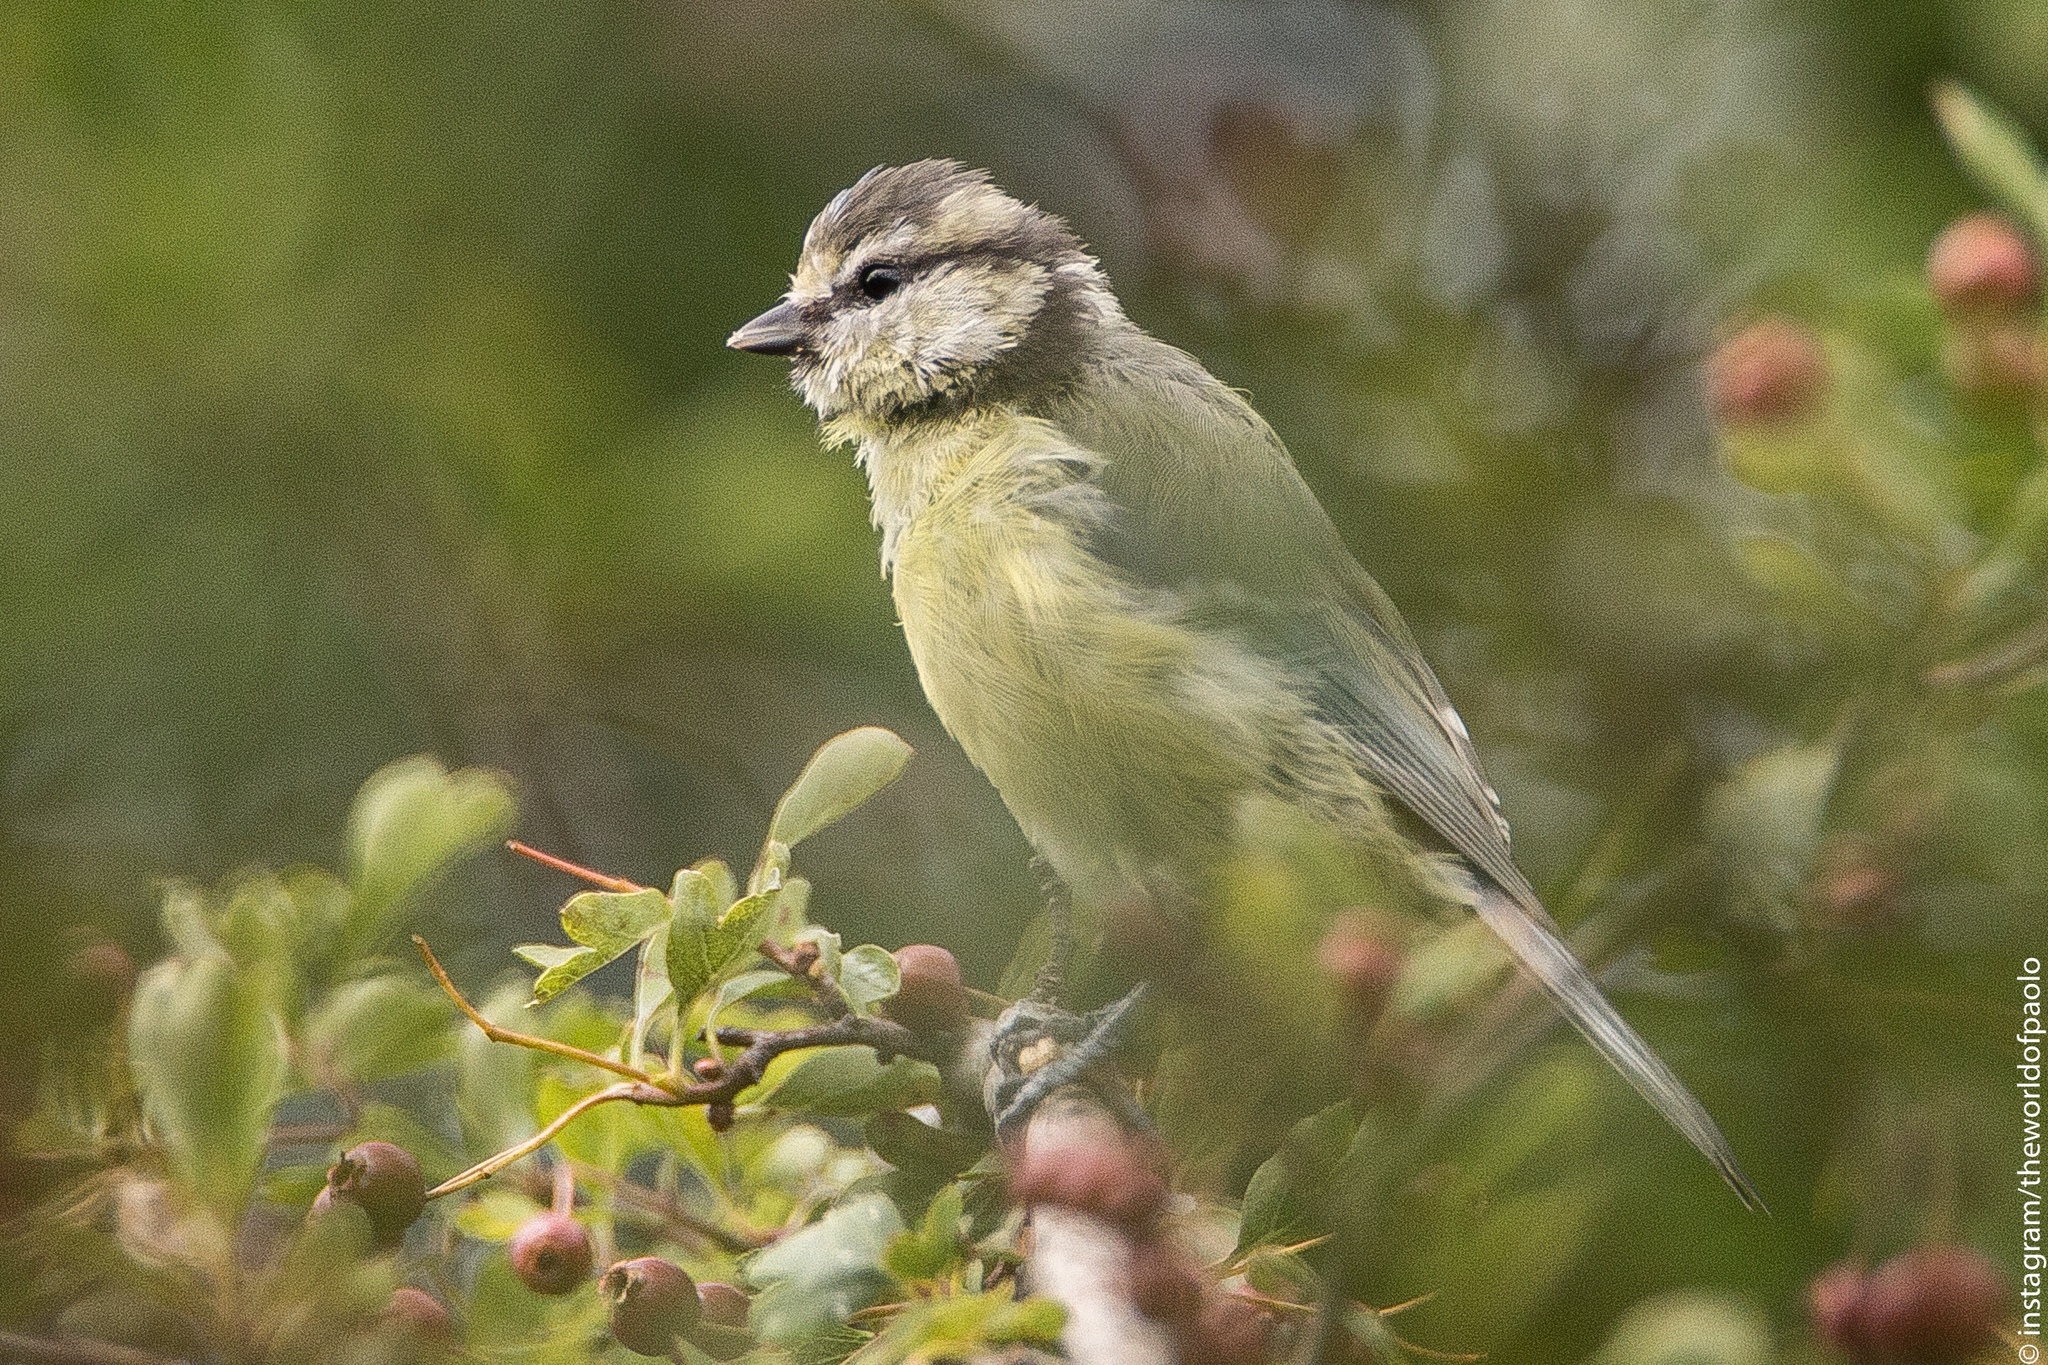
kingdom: Animalia
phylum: Chordata
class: Aves
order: Passeriformes
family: Paridae
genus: Cyanistes
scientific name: Cyanistes caeruleus
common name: Eurasian blue tit
